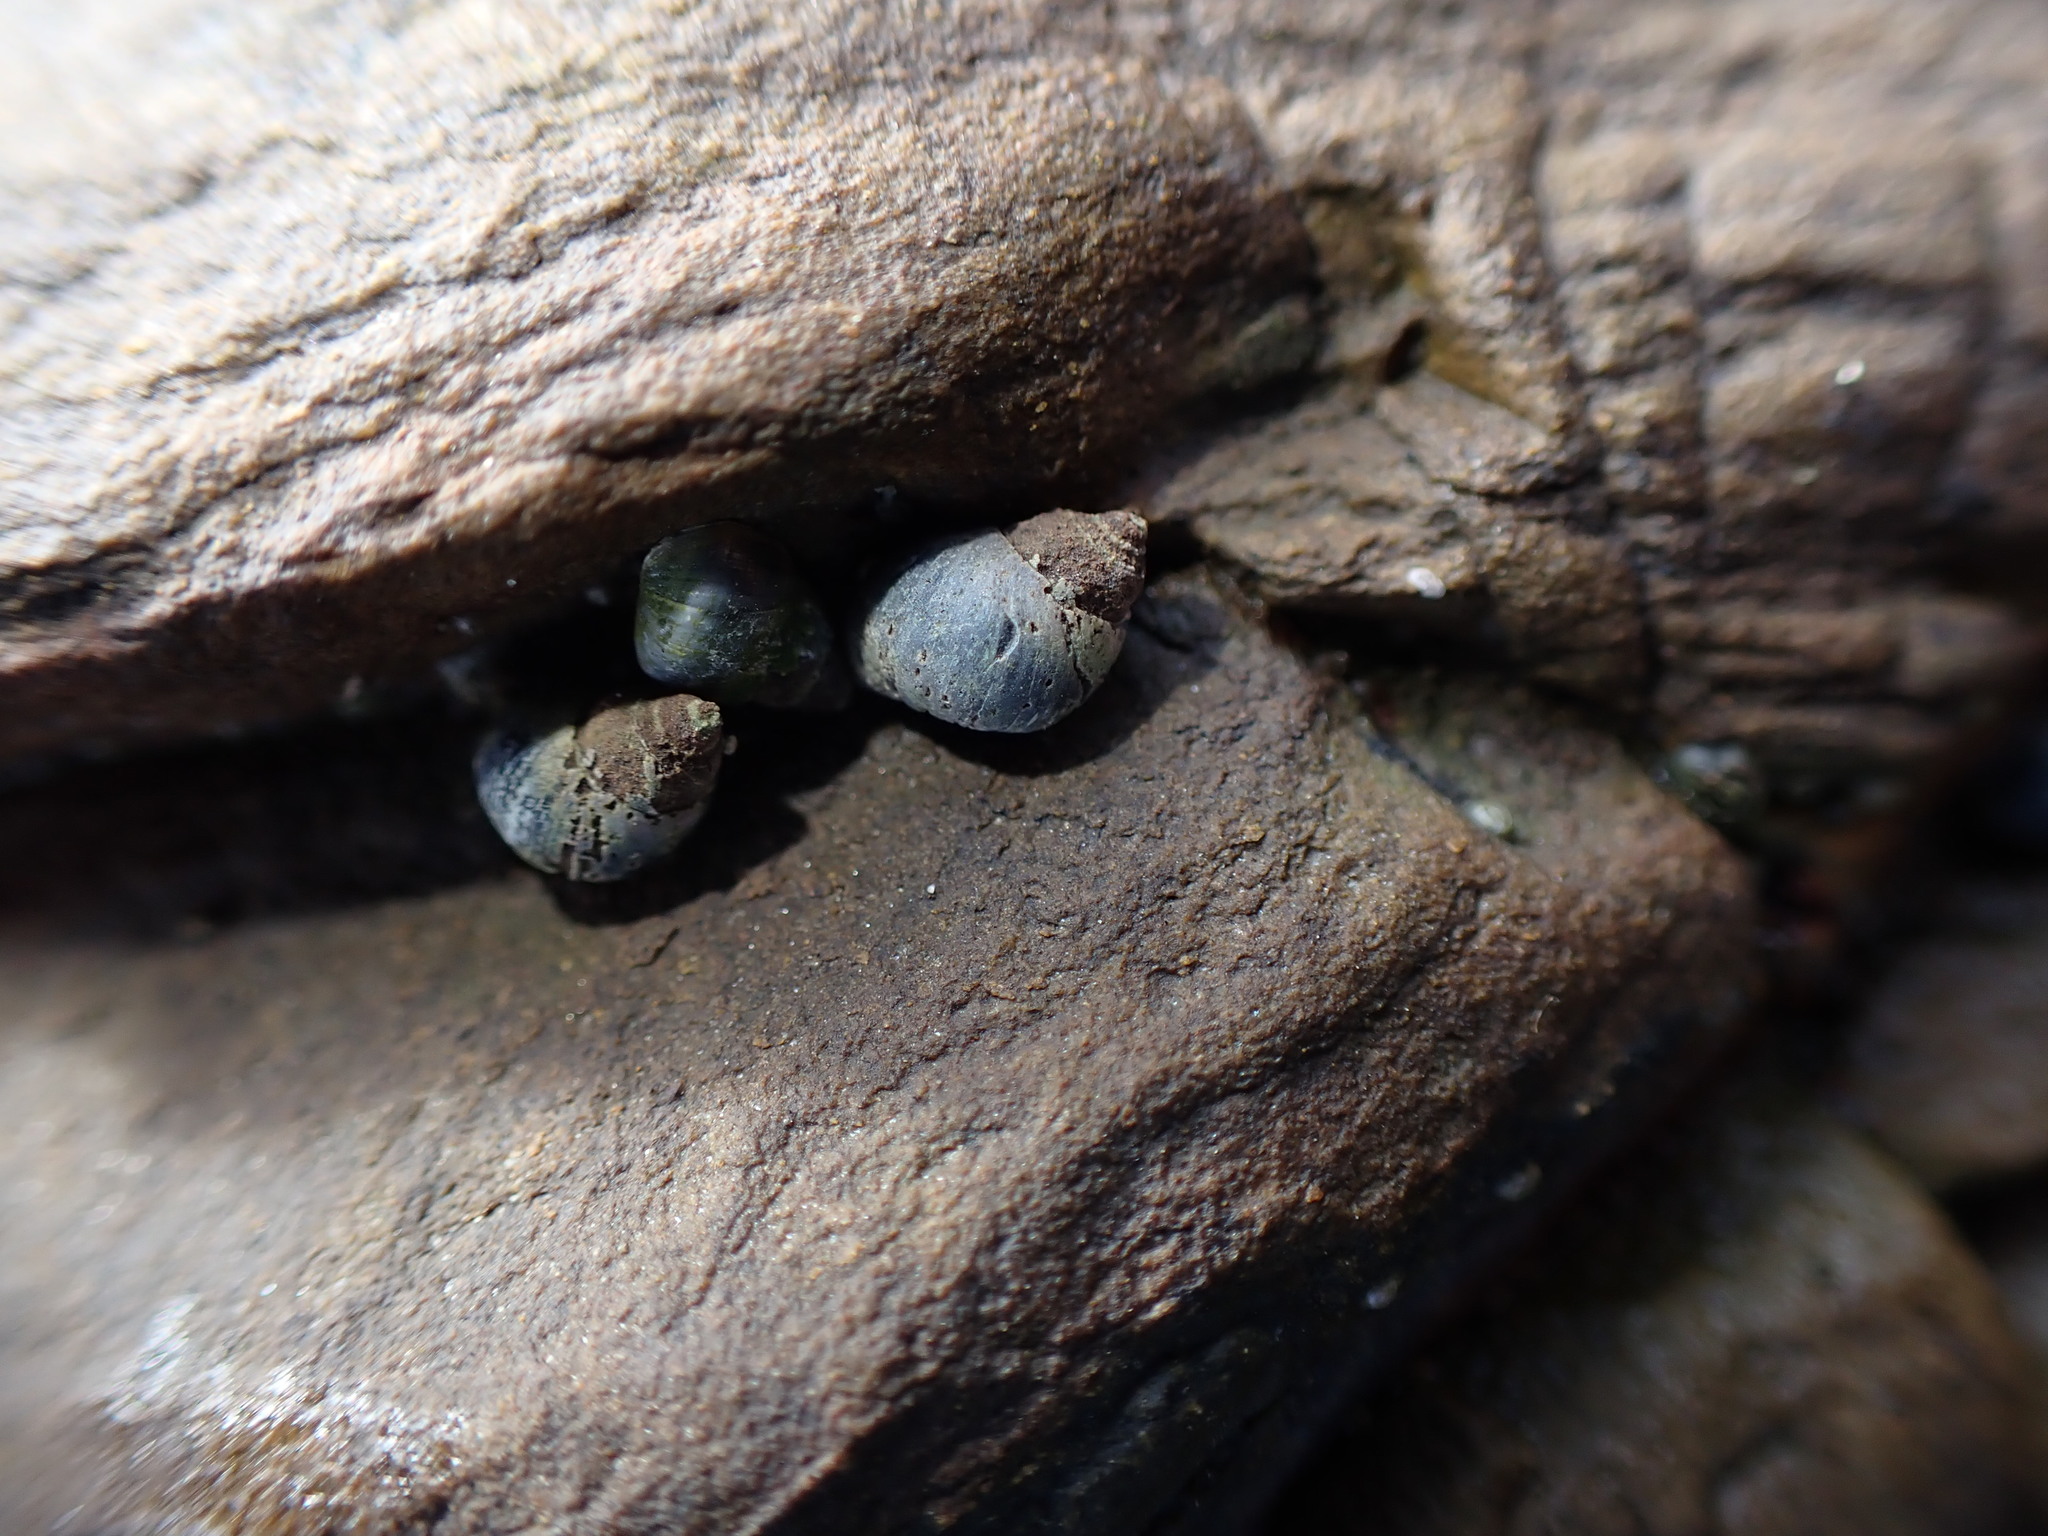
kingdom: Animalia
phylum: Mollusca
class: Gastropoda
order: Littorinimorpha
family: Littorinidae
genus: Austrolittorina
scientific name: Austrolittorina antipodum
